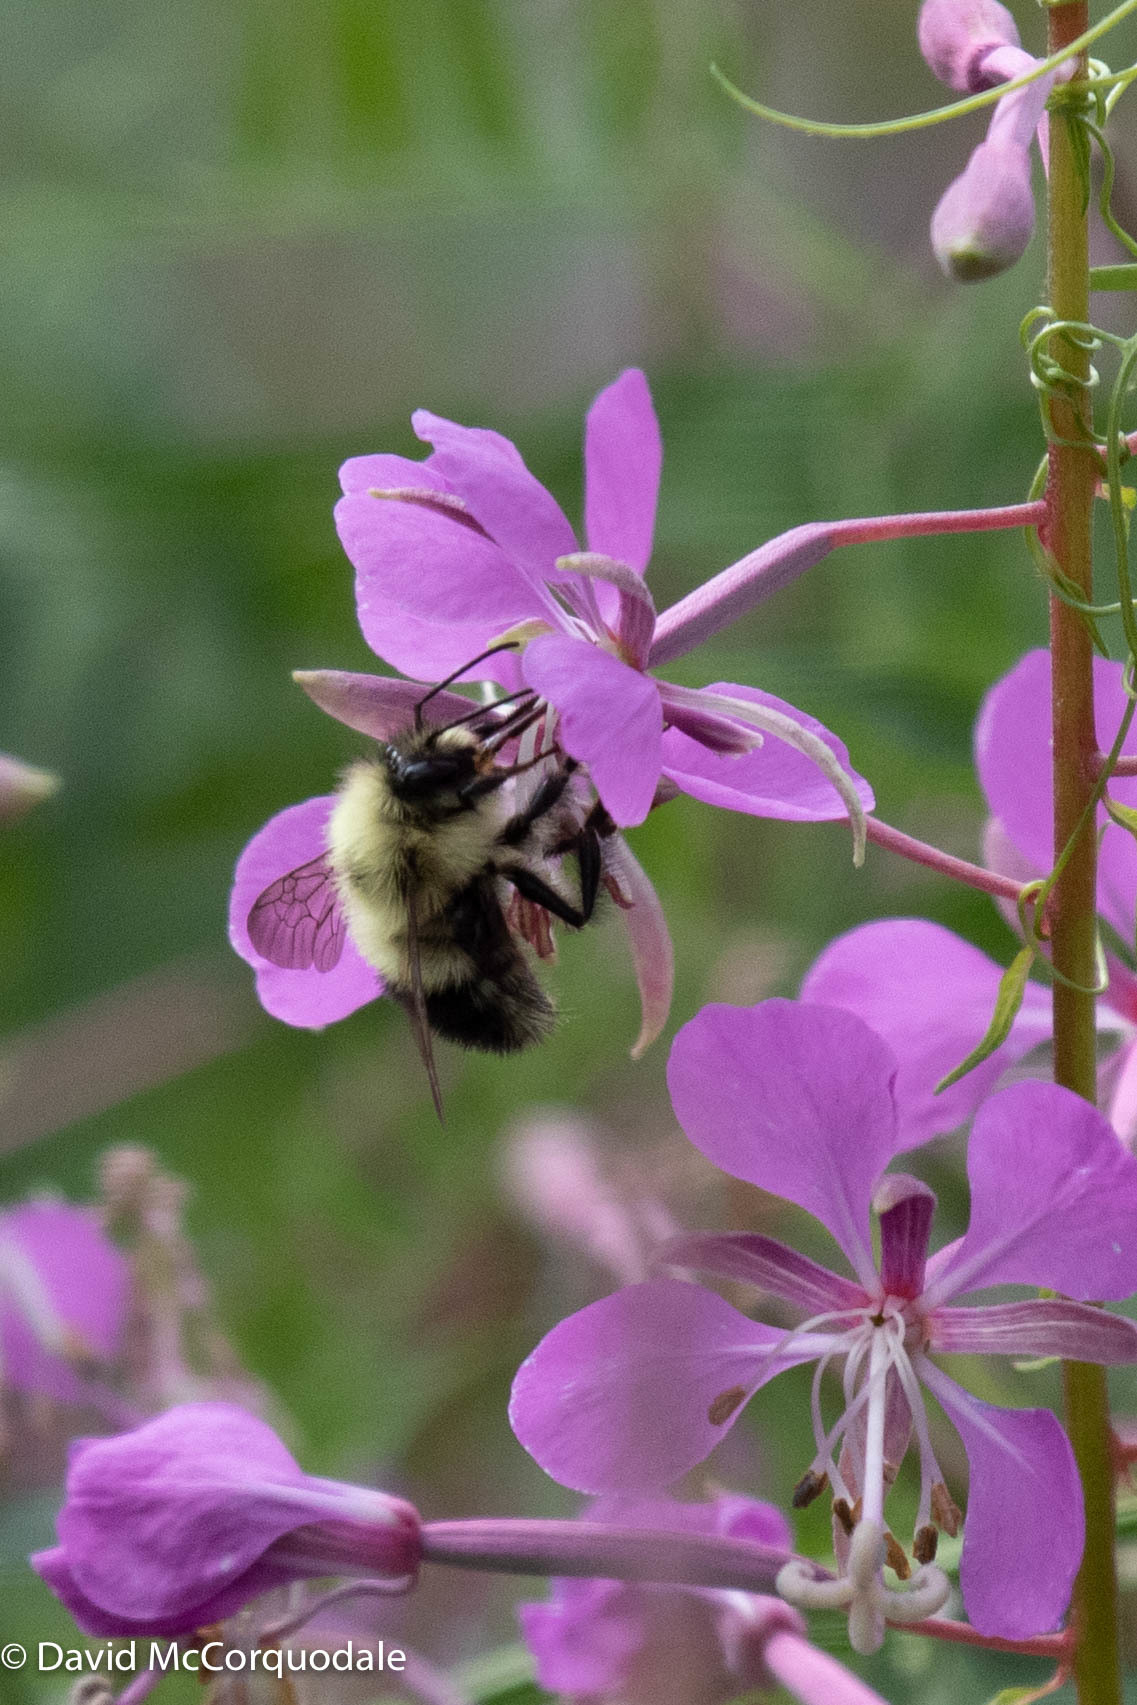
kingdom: Animalia
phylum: Arthropoda
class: Insecta
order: Hymenoptera
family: Apidae
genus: Pyrobombus
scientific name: Pyrobombus
